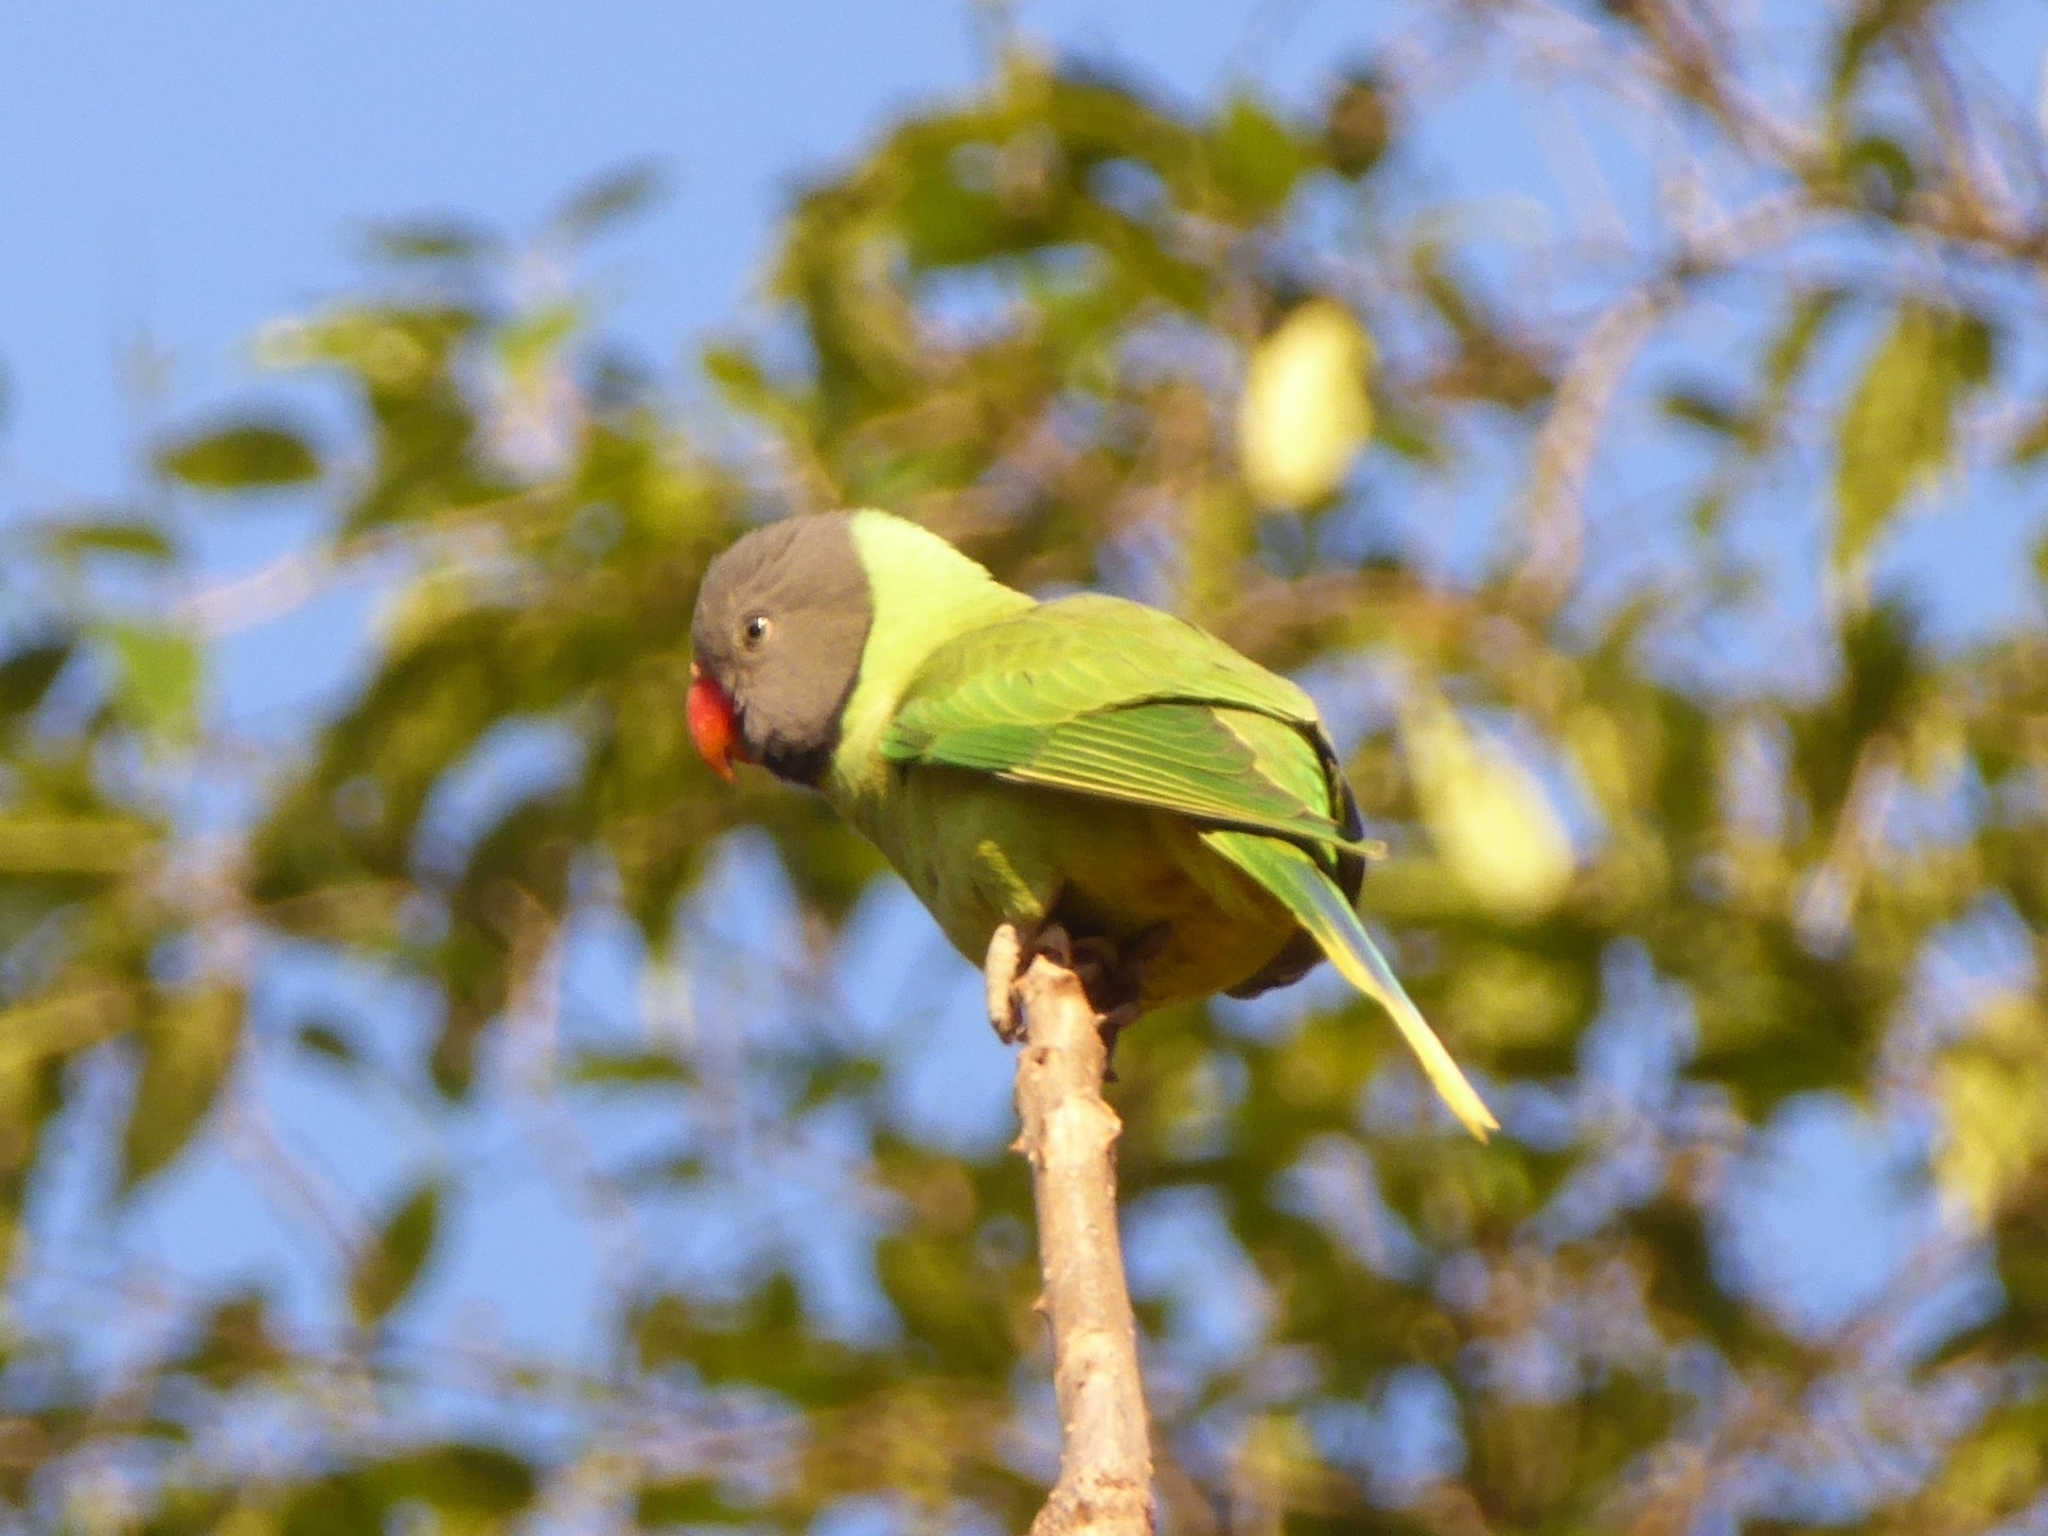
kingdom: Animalia
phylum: Chordata
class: Aves
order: Psittaciformes
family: Psittacidae
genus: Psittacula
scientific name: Psittacula himalayana
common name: Slaty-headed parakeet
